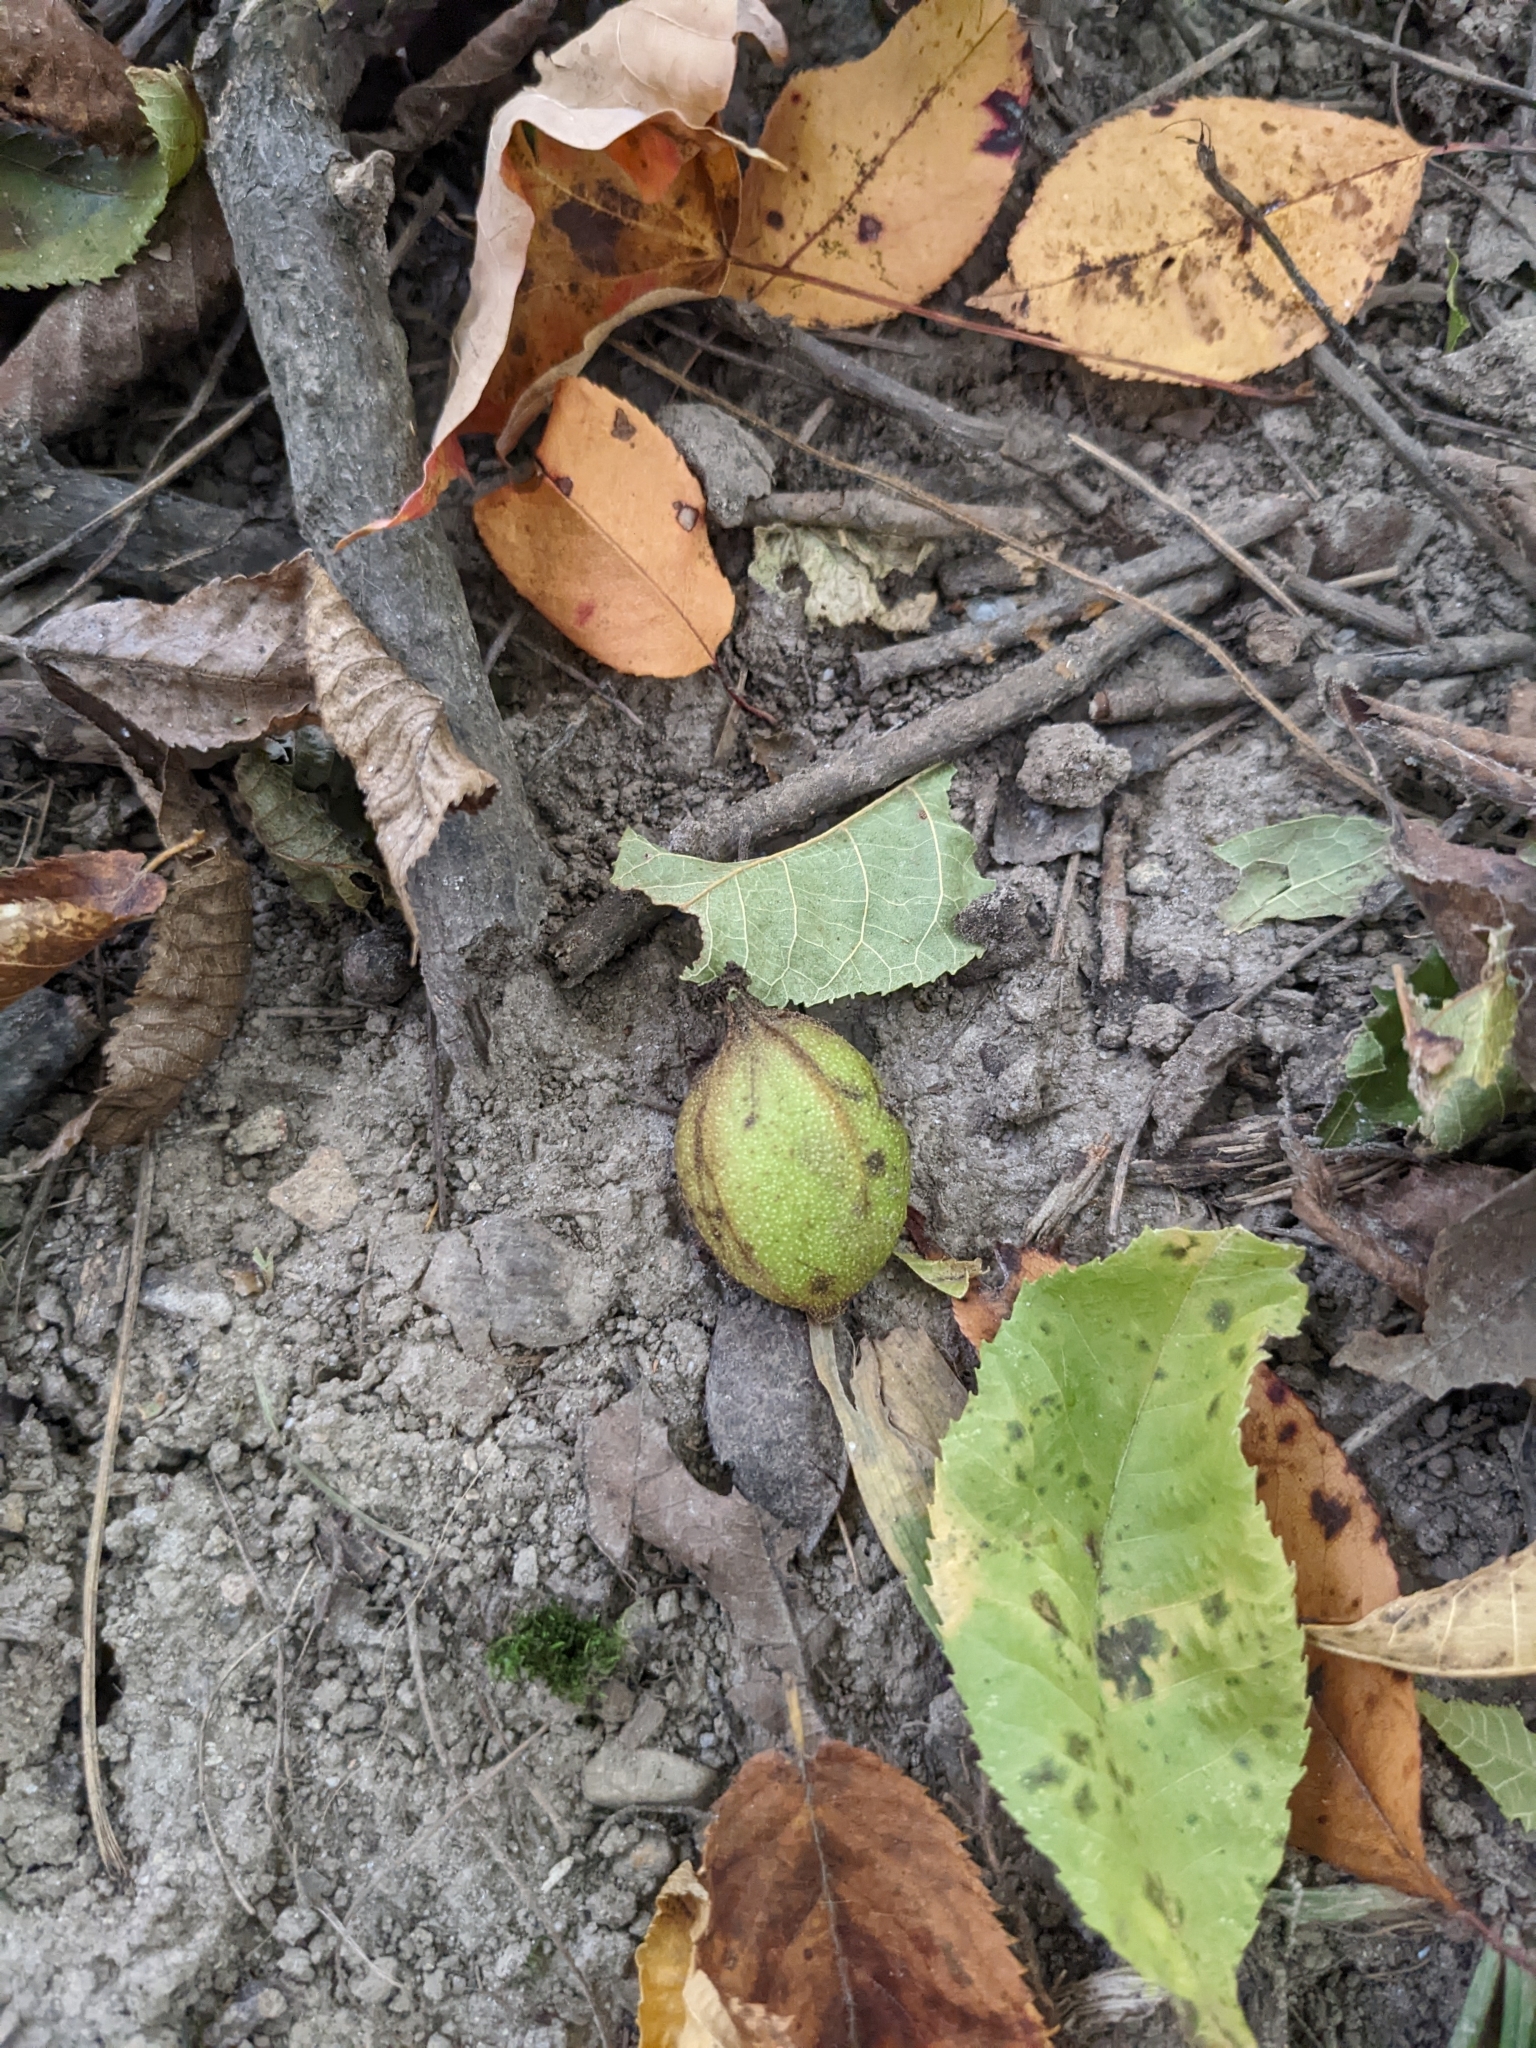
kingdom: Plantae
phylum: Tracheophyta
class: Magnoliopsida
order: Fagales
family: Juglandaceae
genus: Carya
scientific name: Carya cordiformis
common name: Bitternut hickory
